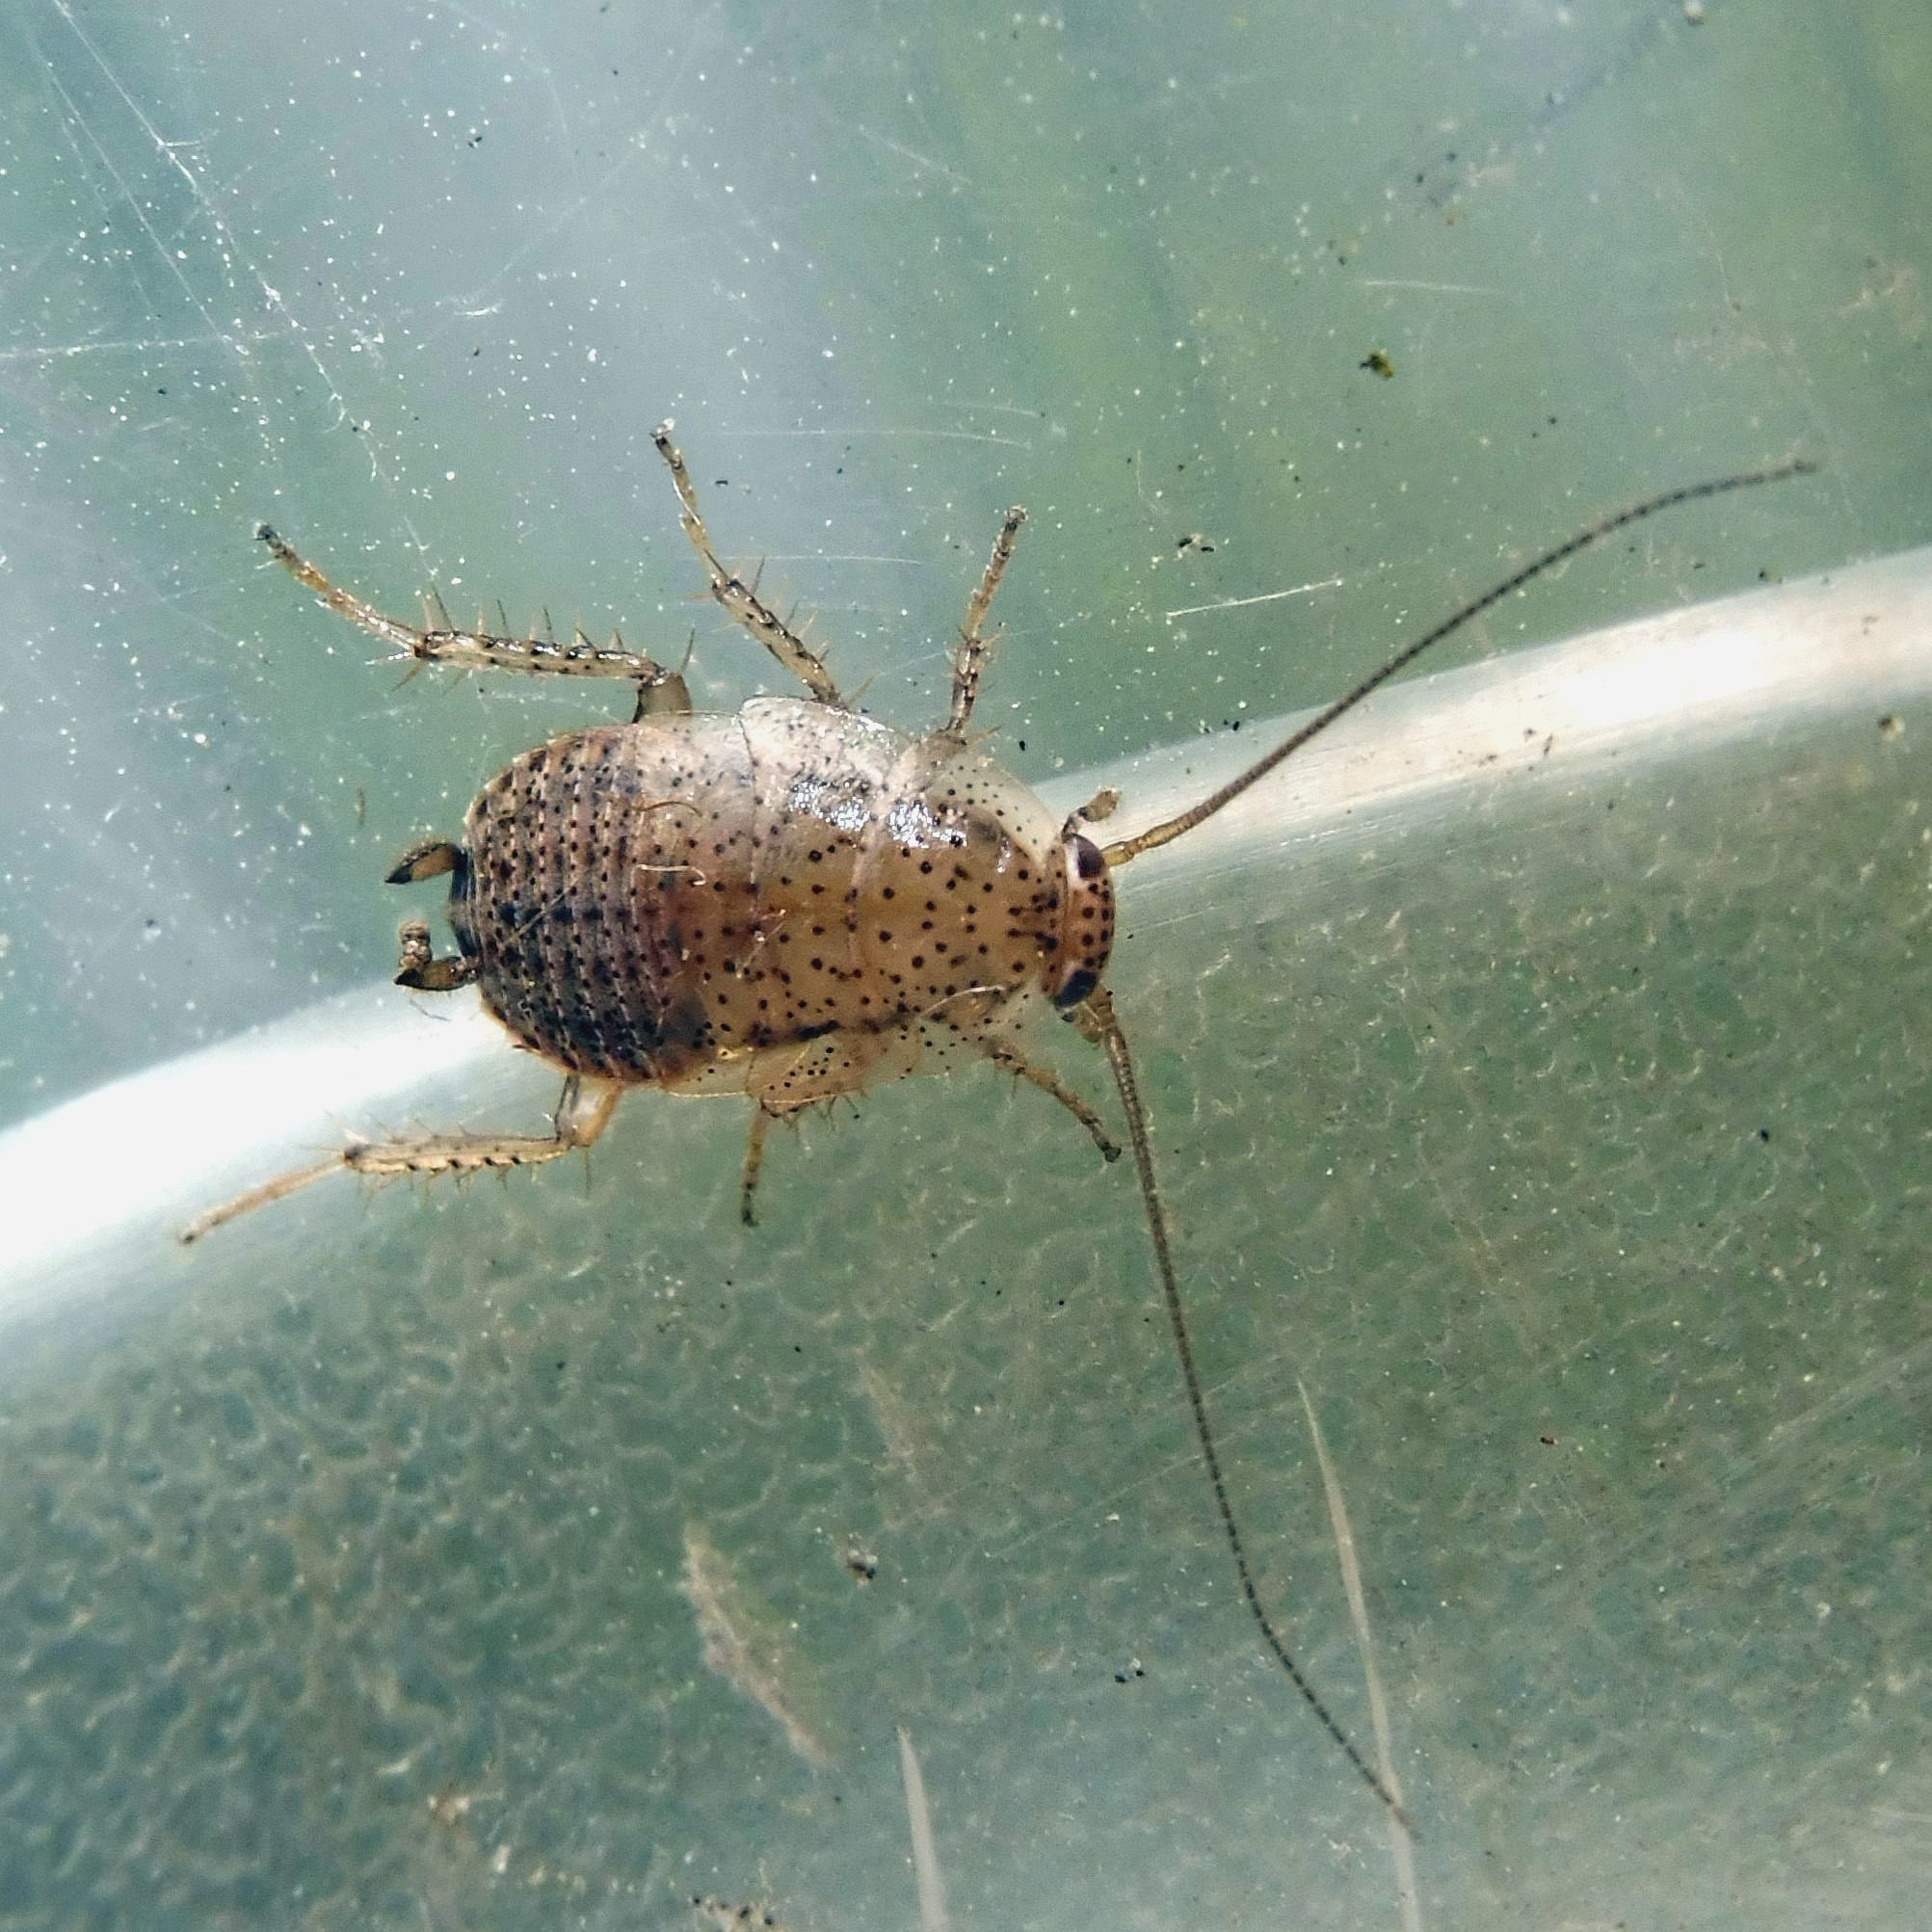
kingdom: Animalia
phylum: Arthropoda
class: Insecta
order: Blattodea
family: Ectobiidae
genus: Ectobius
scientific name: Ectobius pallidus
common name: Tawny cockroach
